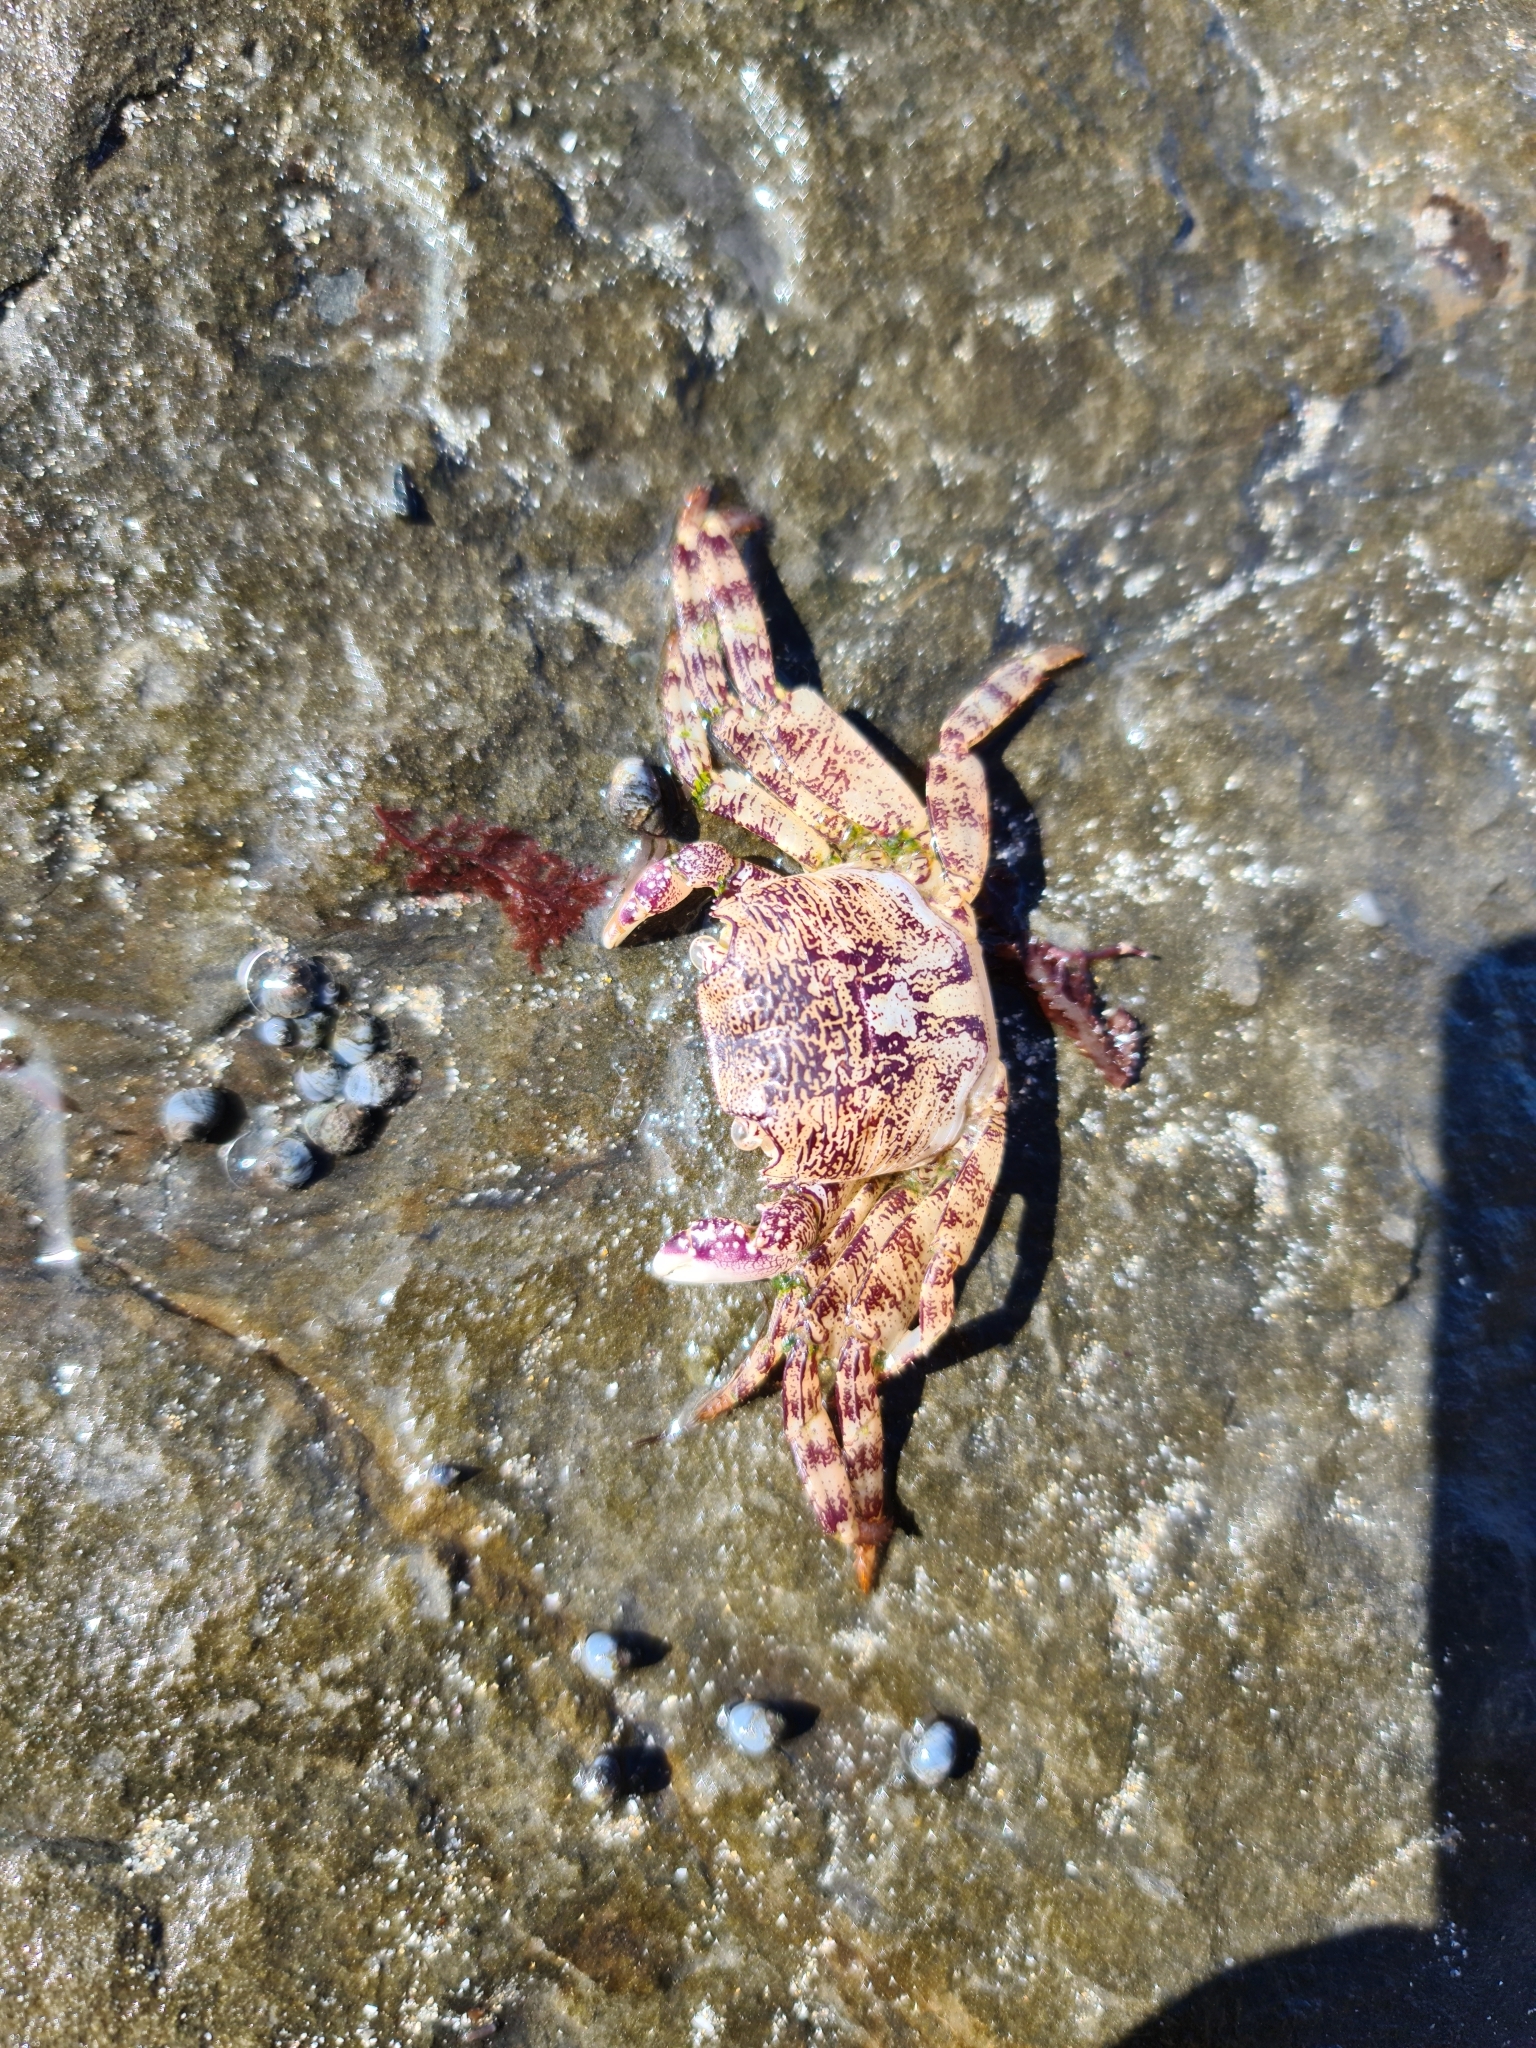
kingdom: Animalia
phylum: Arthropoda
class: Malacostraca
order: Decapoda
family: Grapsidae
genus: Leptograpsus
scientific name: Leptograpsus variegatus
